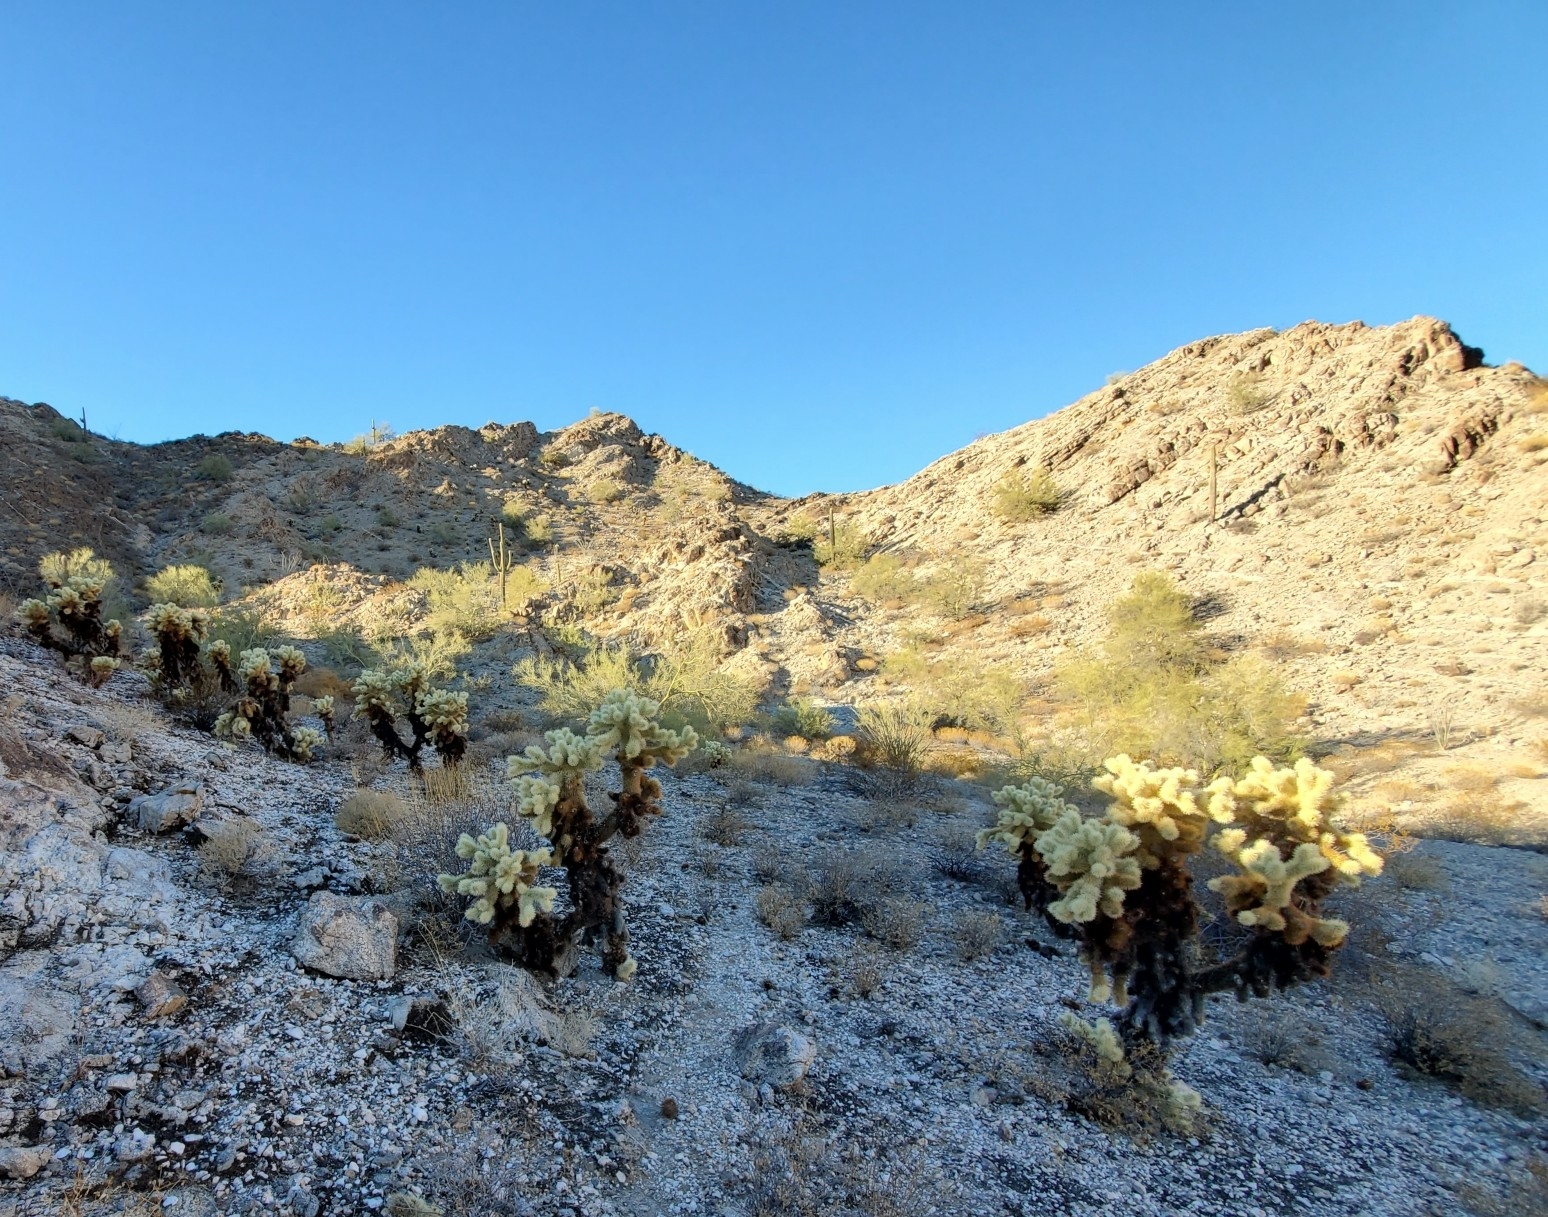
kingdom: Plantae
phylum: Tracheophyta
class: Magnoliopsida
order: Caryophyllales
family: Cactaceae
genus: Cylindropuntia
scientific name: Cylindropuntia fosbergii
